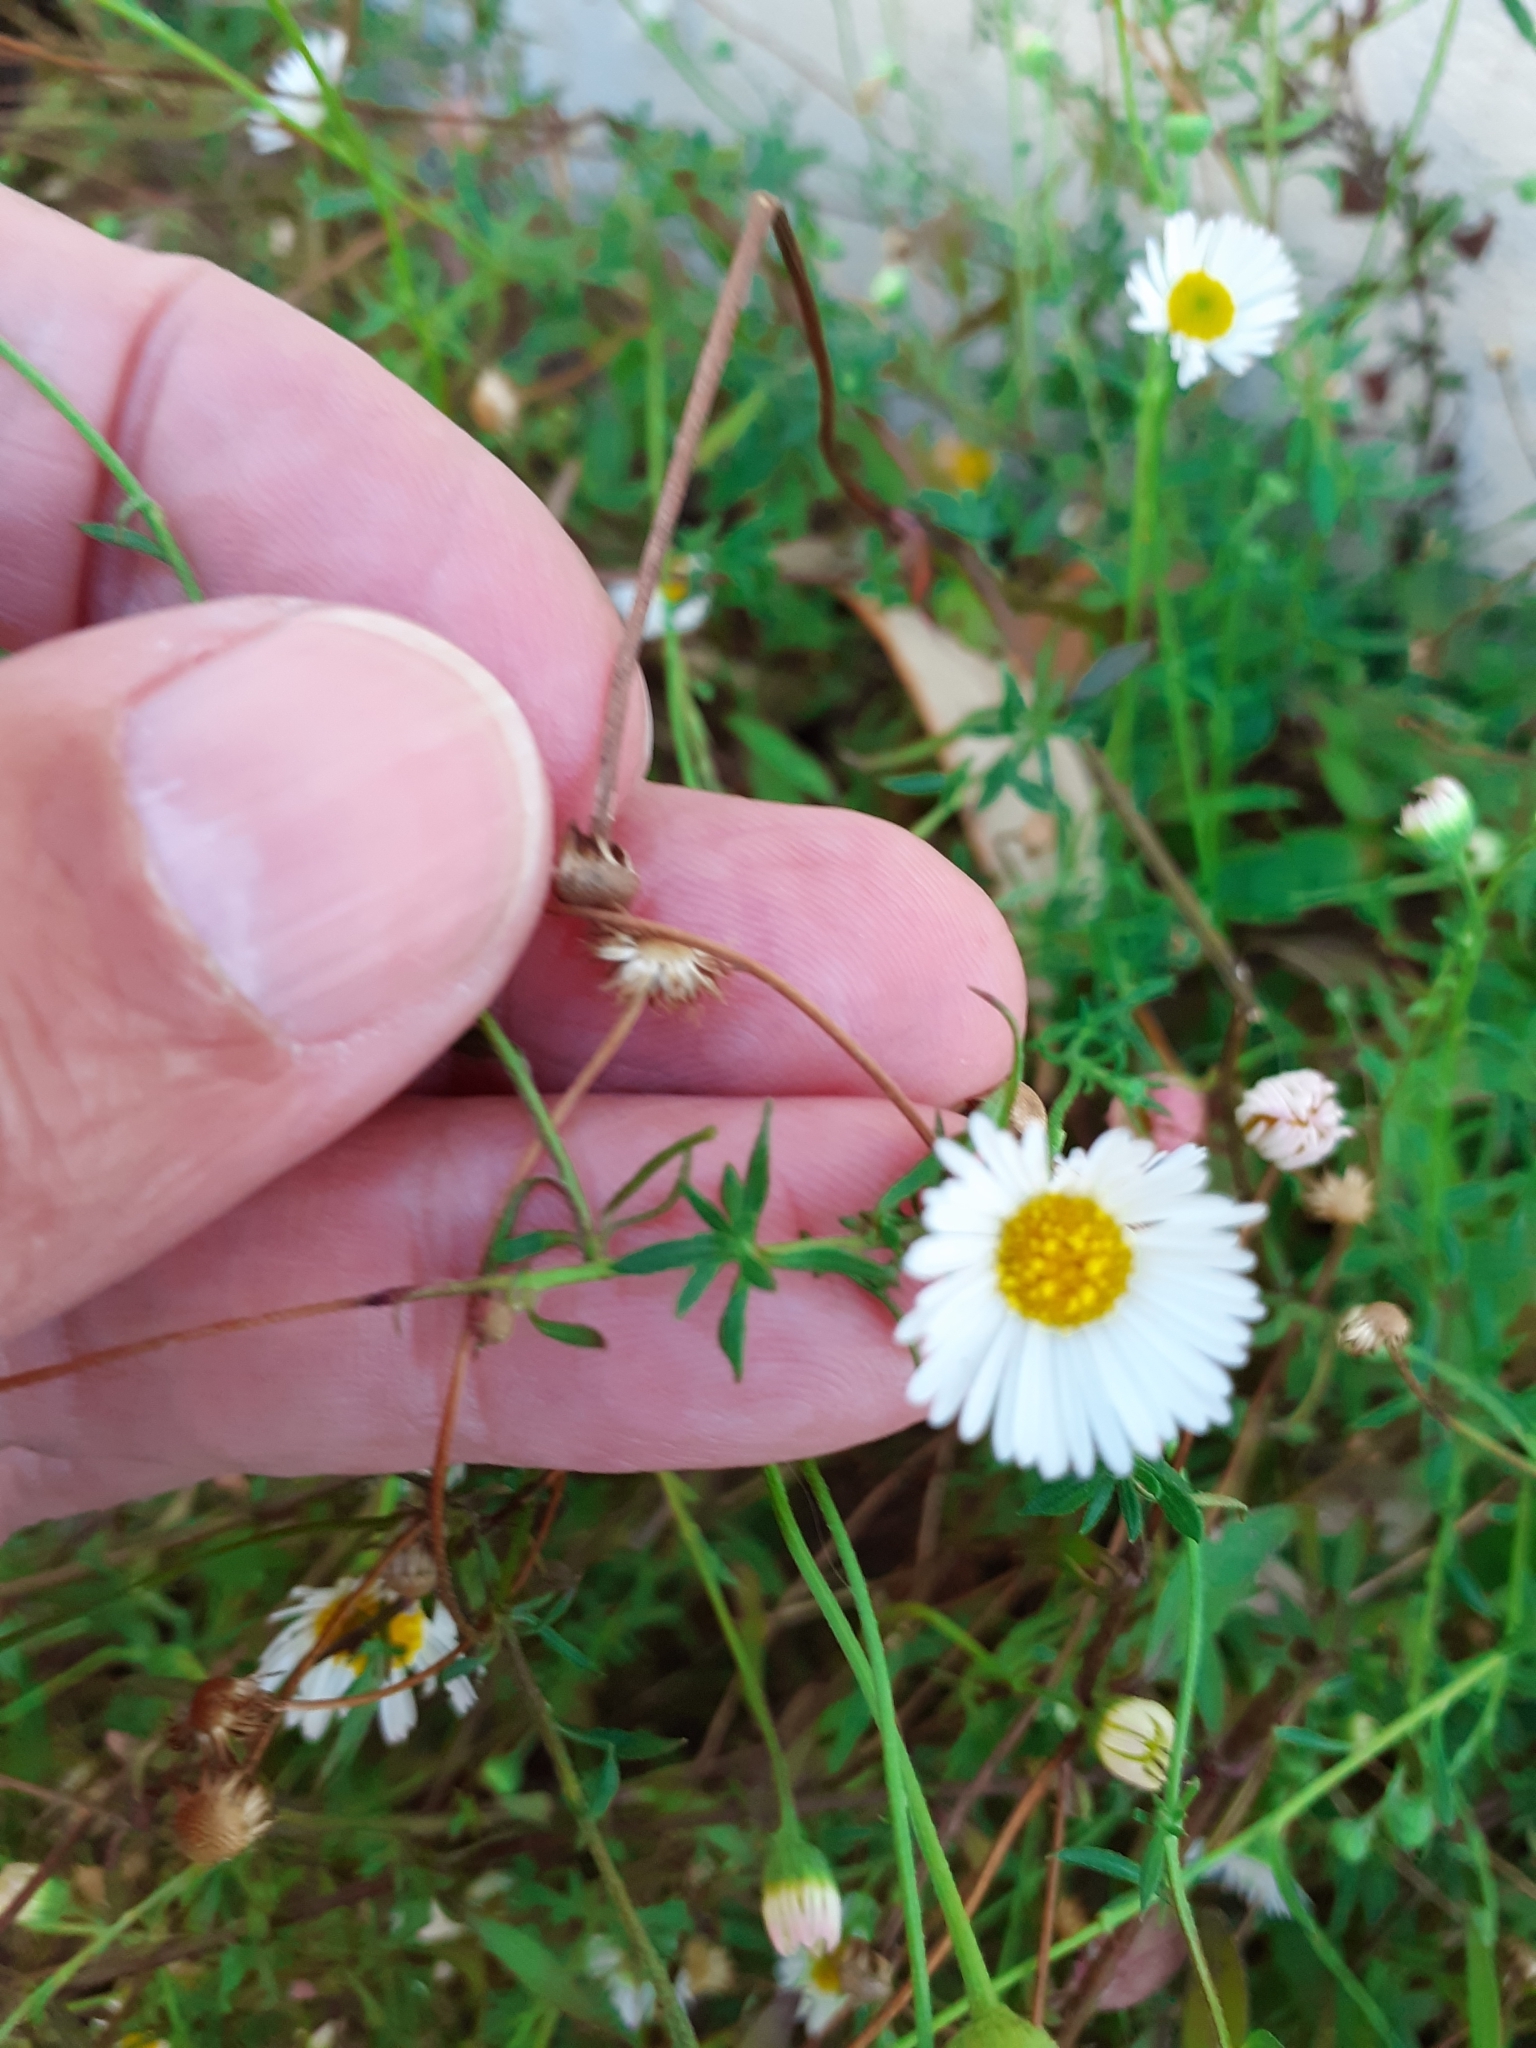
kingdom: Plantae
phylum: Tracheophyta
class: Magnoliopsida
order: Asterales
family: Asteraceae
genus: Erigeron
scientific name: Erigeron karvinskianus
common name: Mexican fleabane
